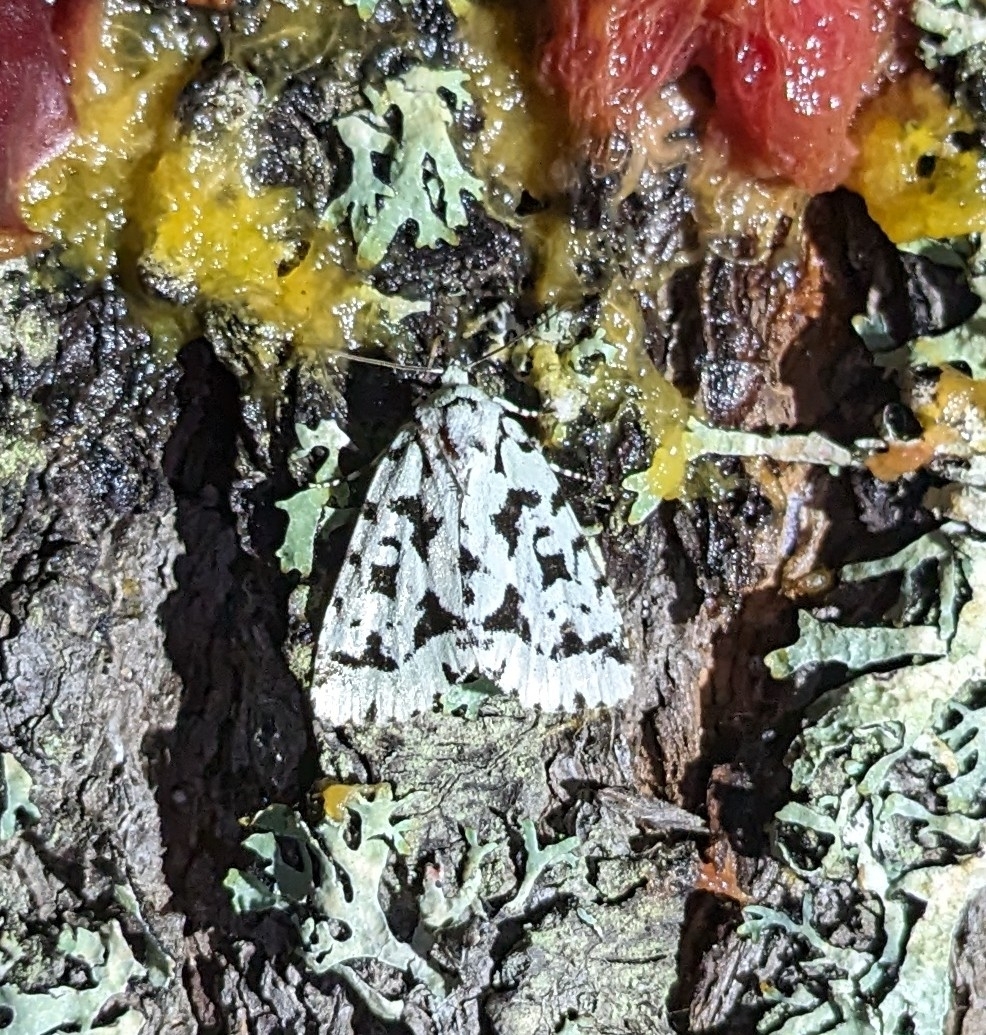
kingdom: Animalia
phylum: Arthropoda
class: Insecta
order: Lepidoptera
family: Noctuidae
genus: Acronicta
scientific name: Acronicta fallax
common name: Green marvel
